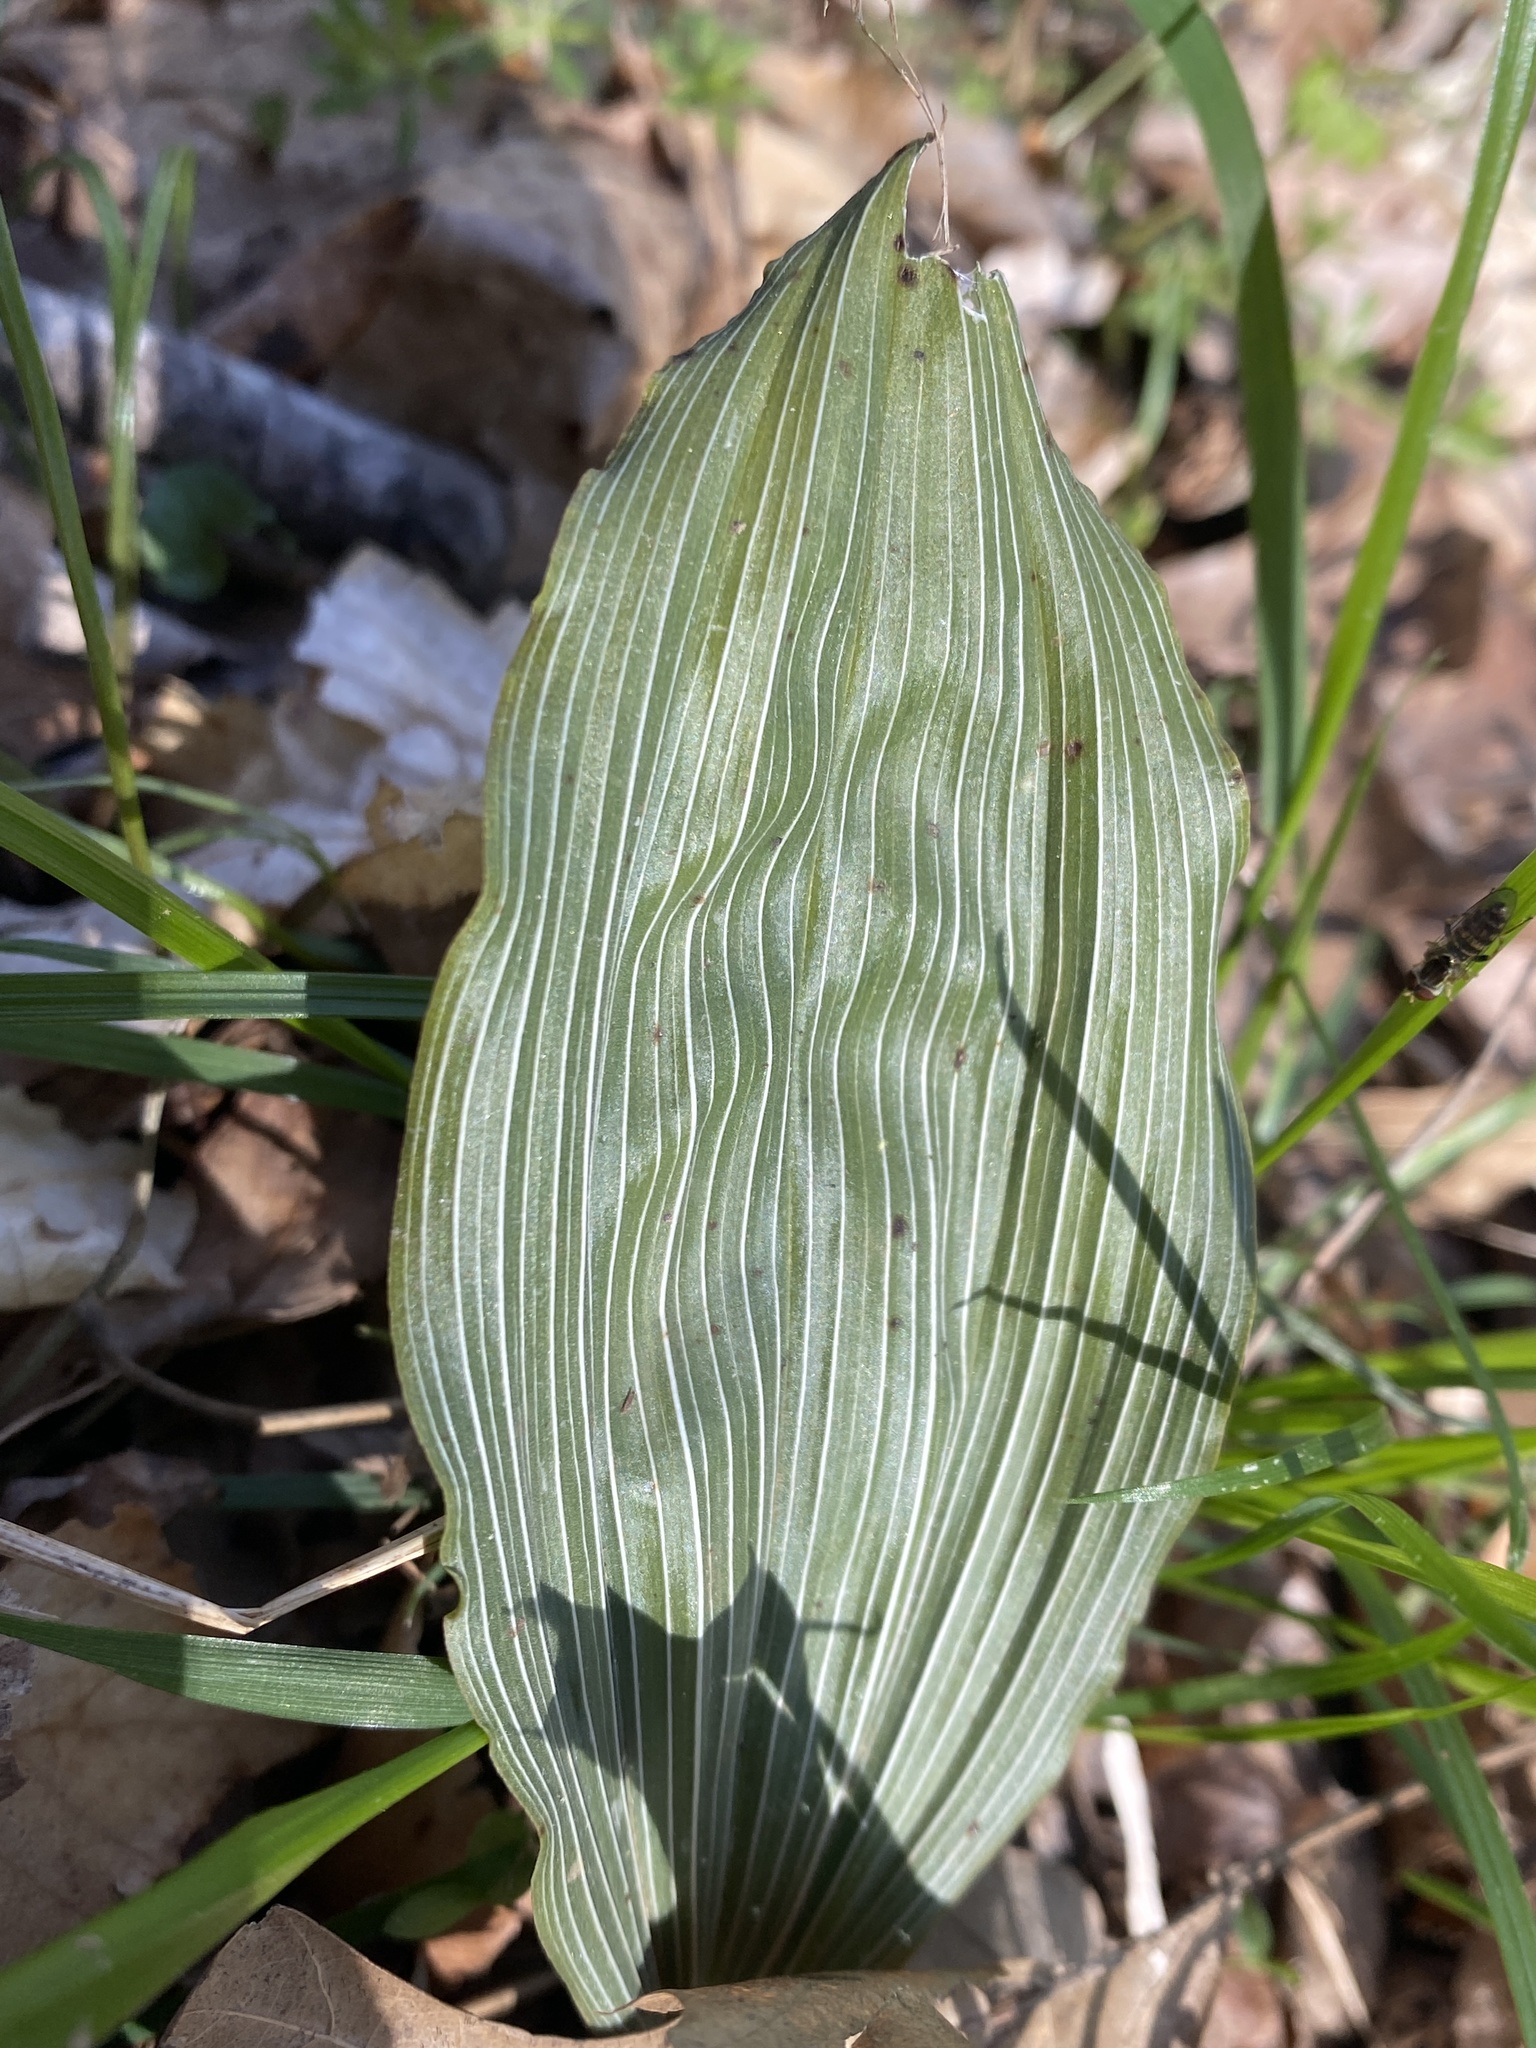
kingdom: Plantae
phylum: Tracheophyta
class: Liliopsida
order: Asparagales
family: Orchidaceae
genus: Aplectrum
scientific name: Aplectrum hyemale
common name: Adam-and-eve
